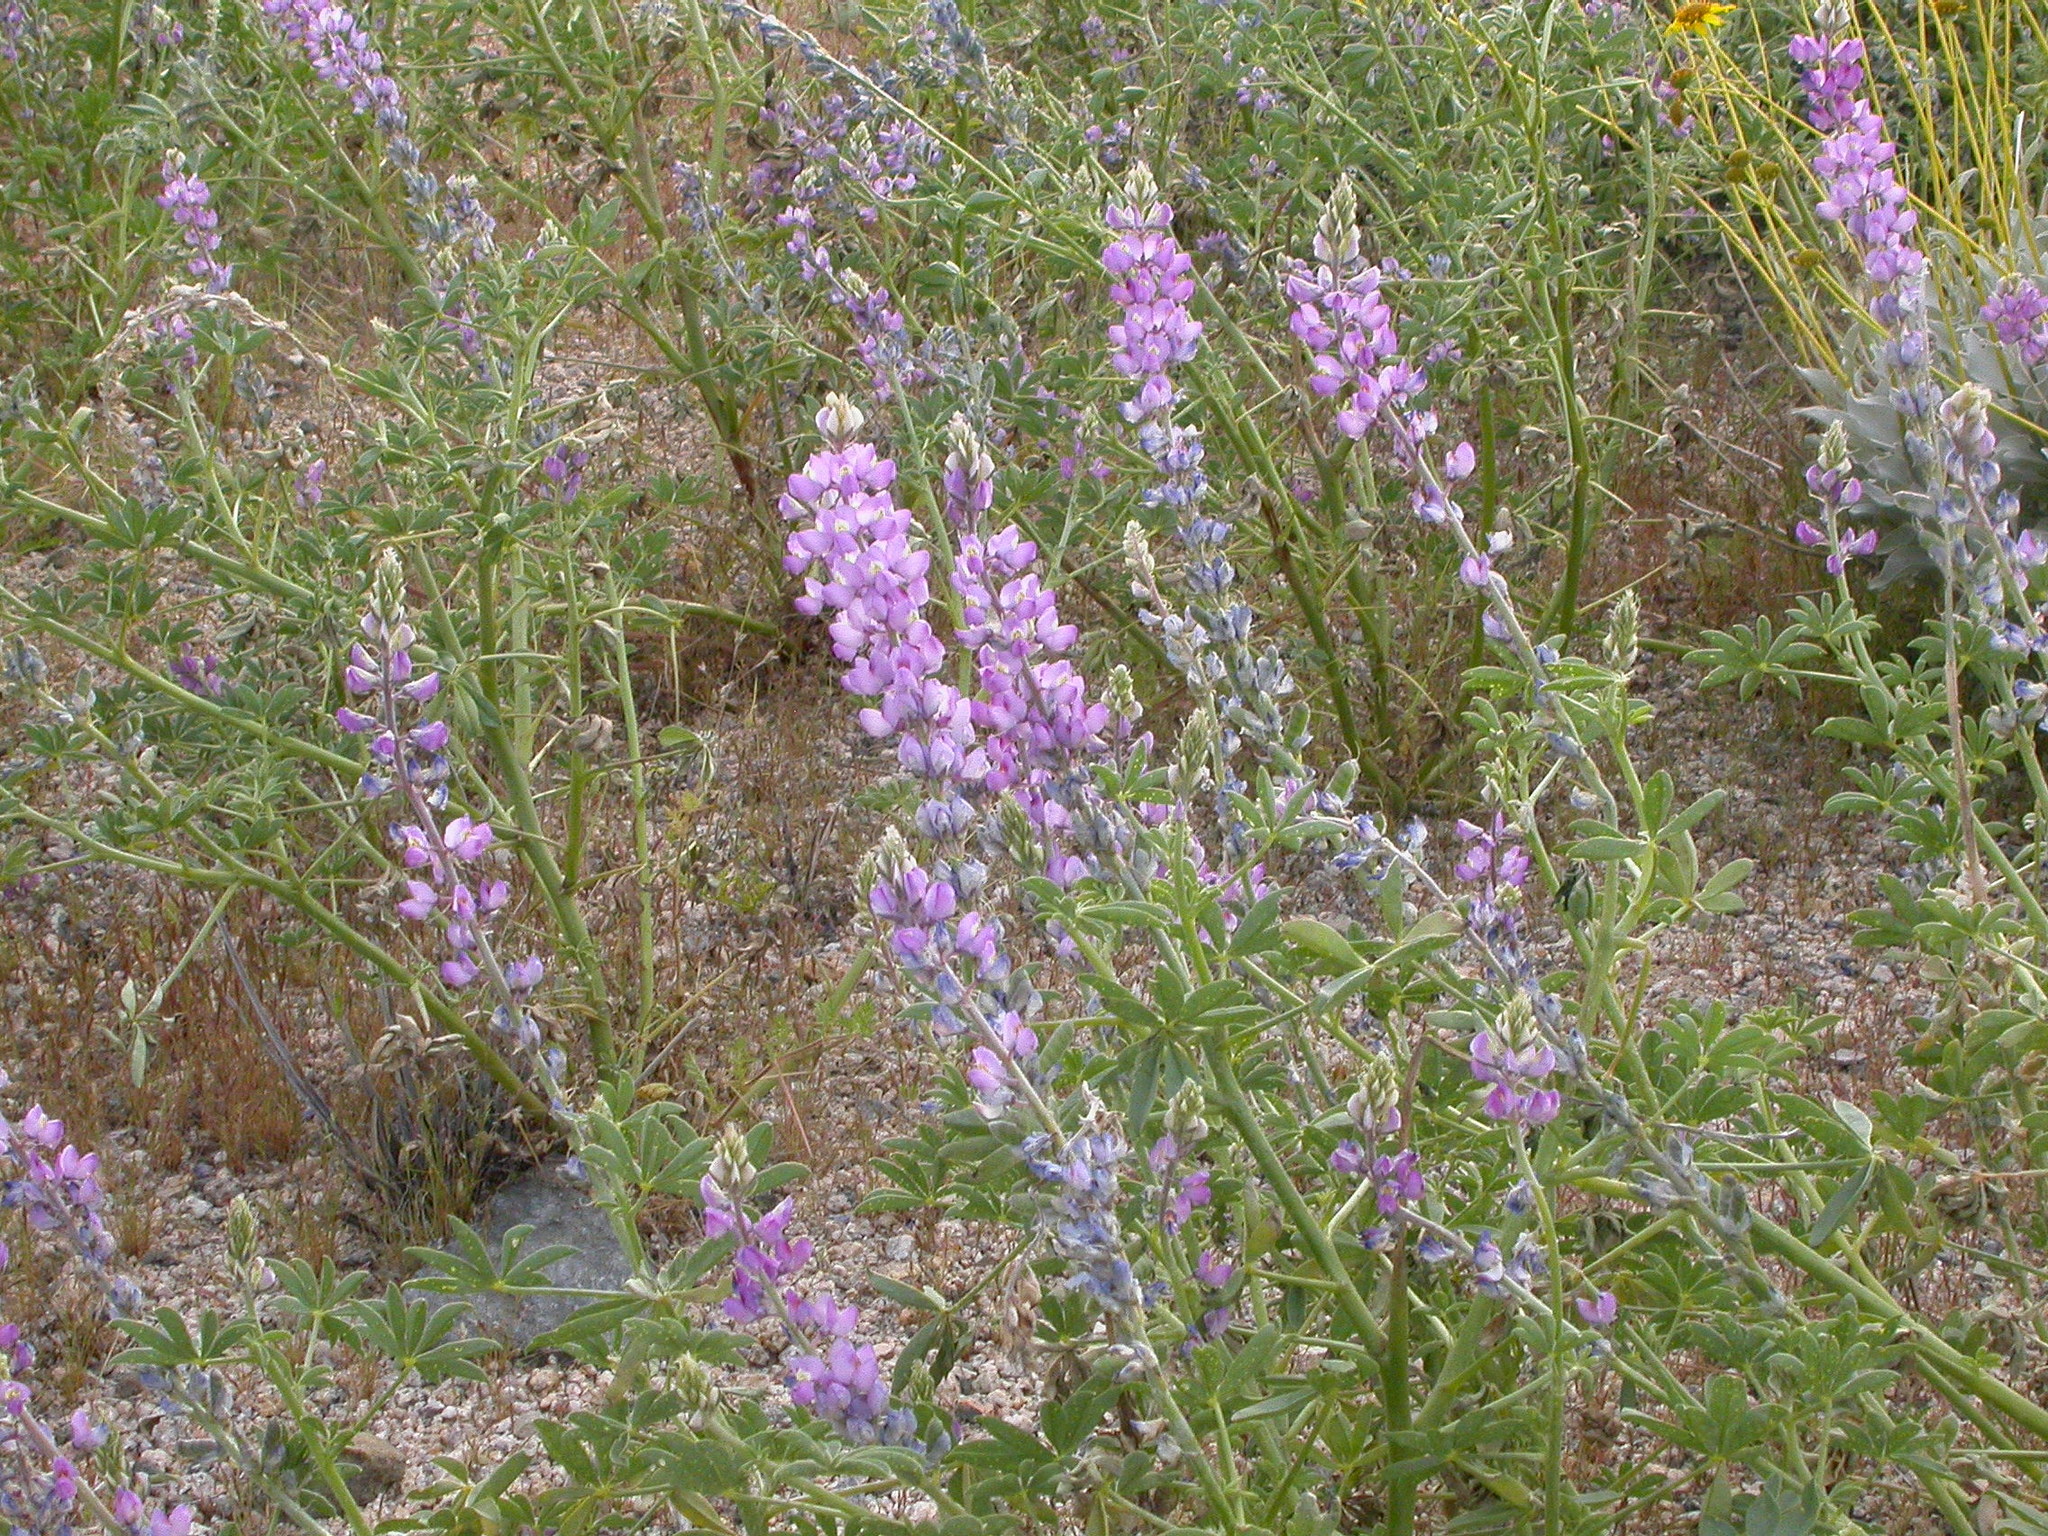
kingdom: Plantae
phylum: Tracheophyta
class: Magnoliopsida
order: Fabales
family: Fabaceae
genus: Lupinus
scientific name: Lupinus arizonicus
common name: Arizona lupine
